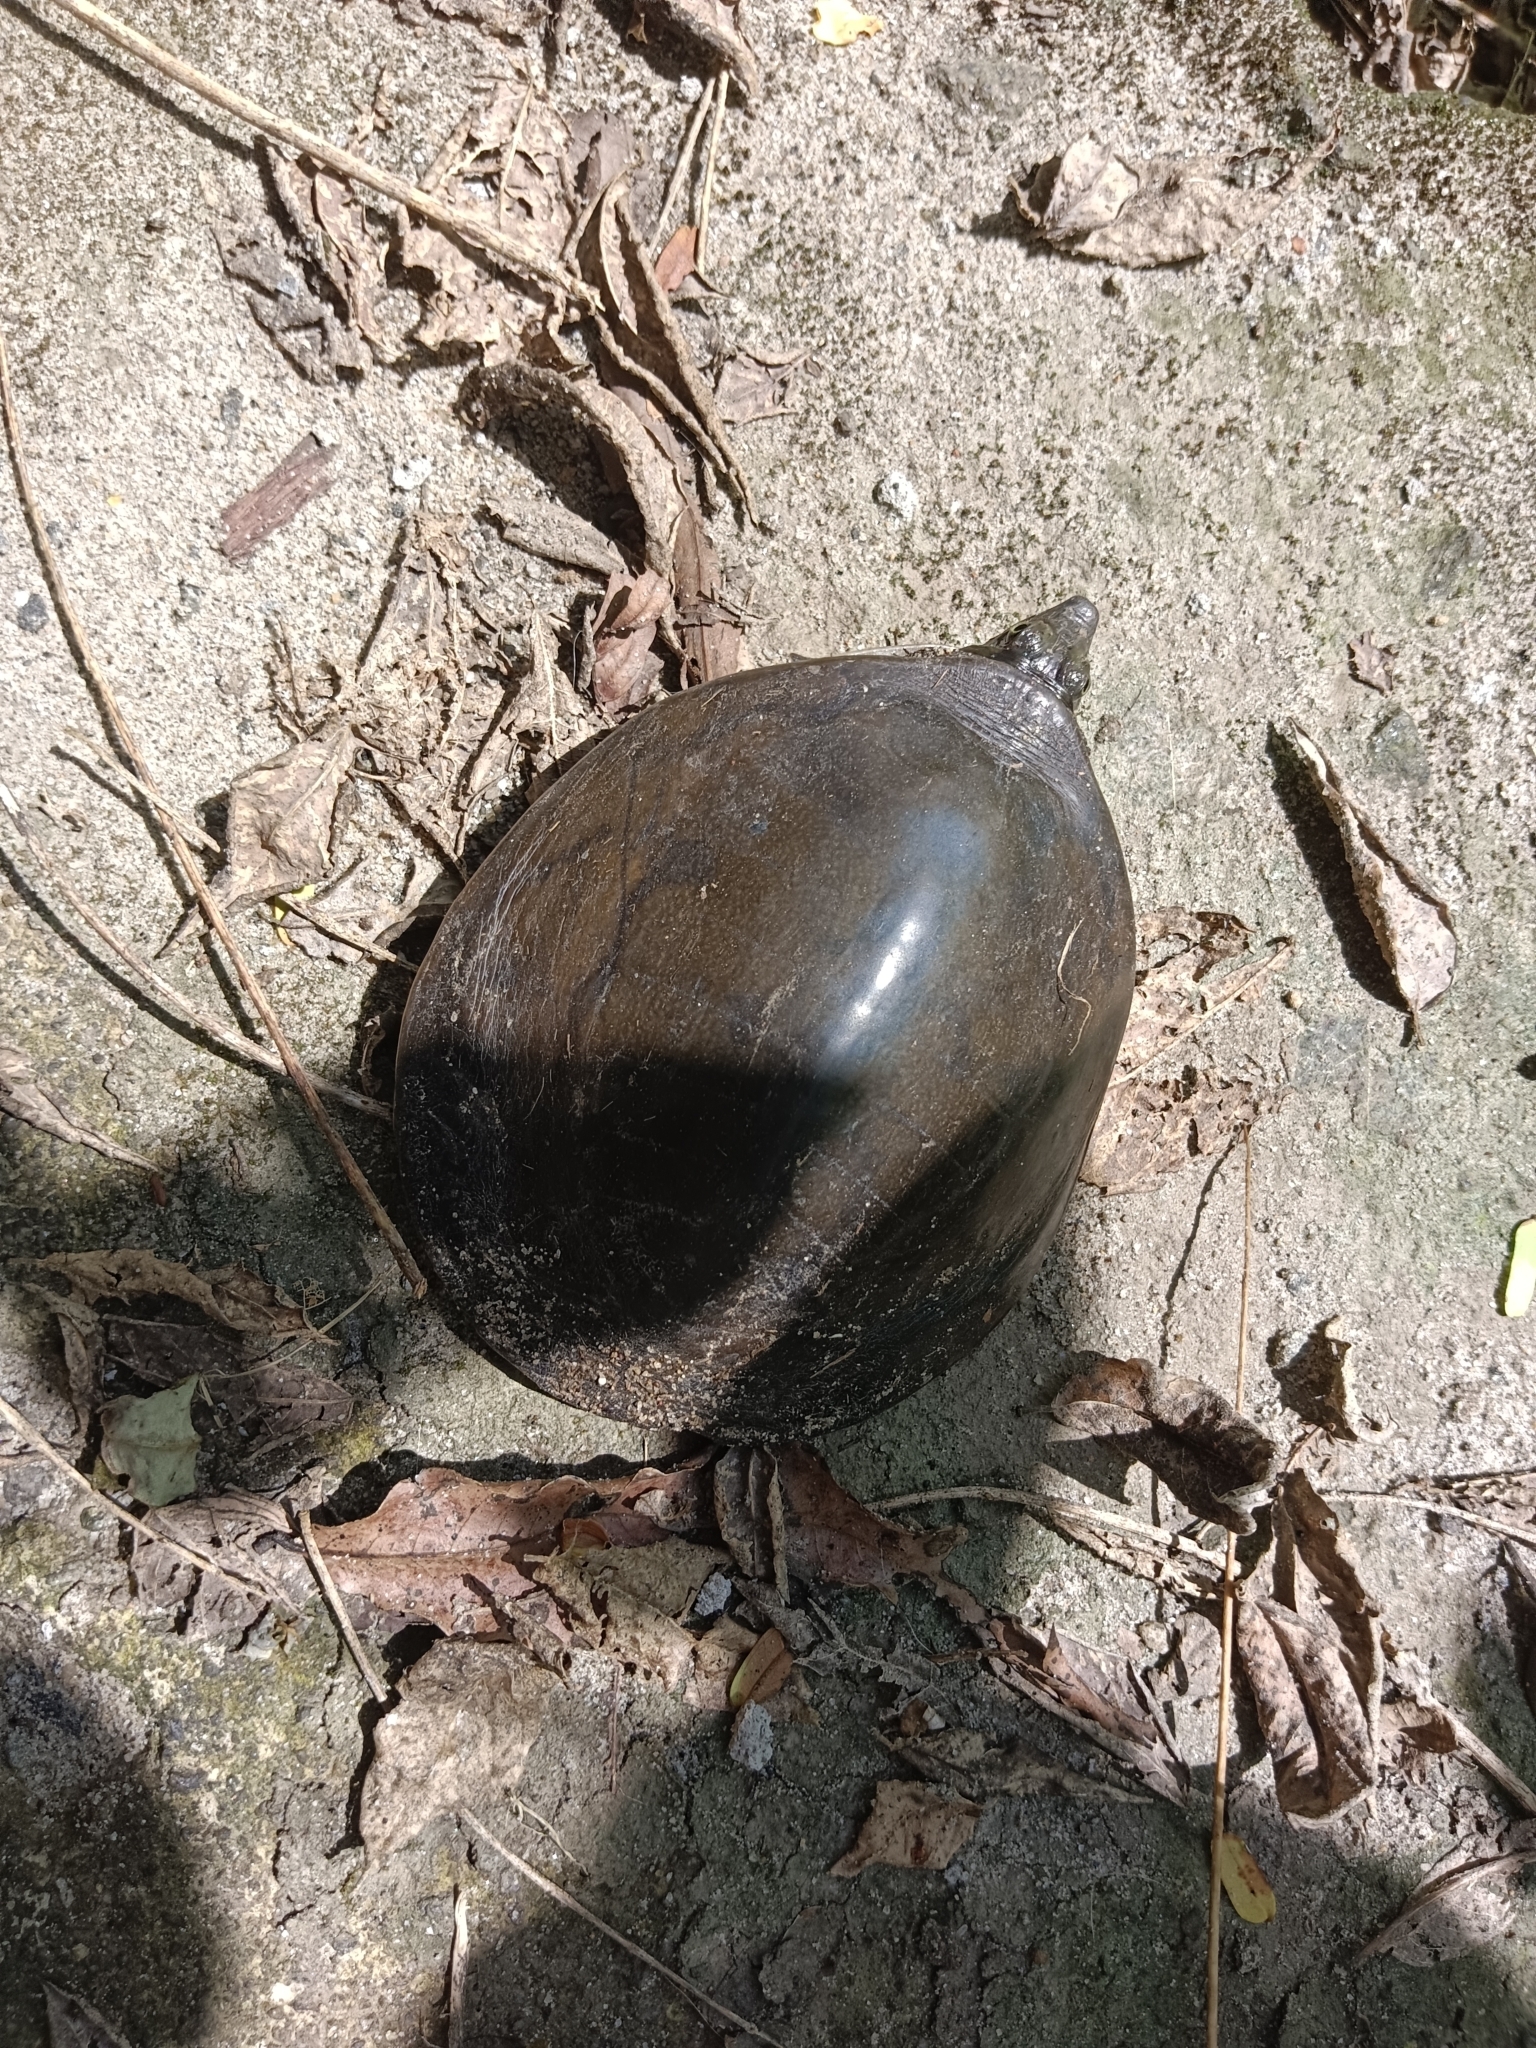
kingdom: Animalia
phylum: Chordata
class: Testudines
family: Trionychidae
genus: Lissemys
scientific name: Lissemys punctata
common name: Indian flap-shelled turtle
